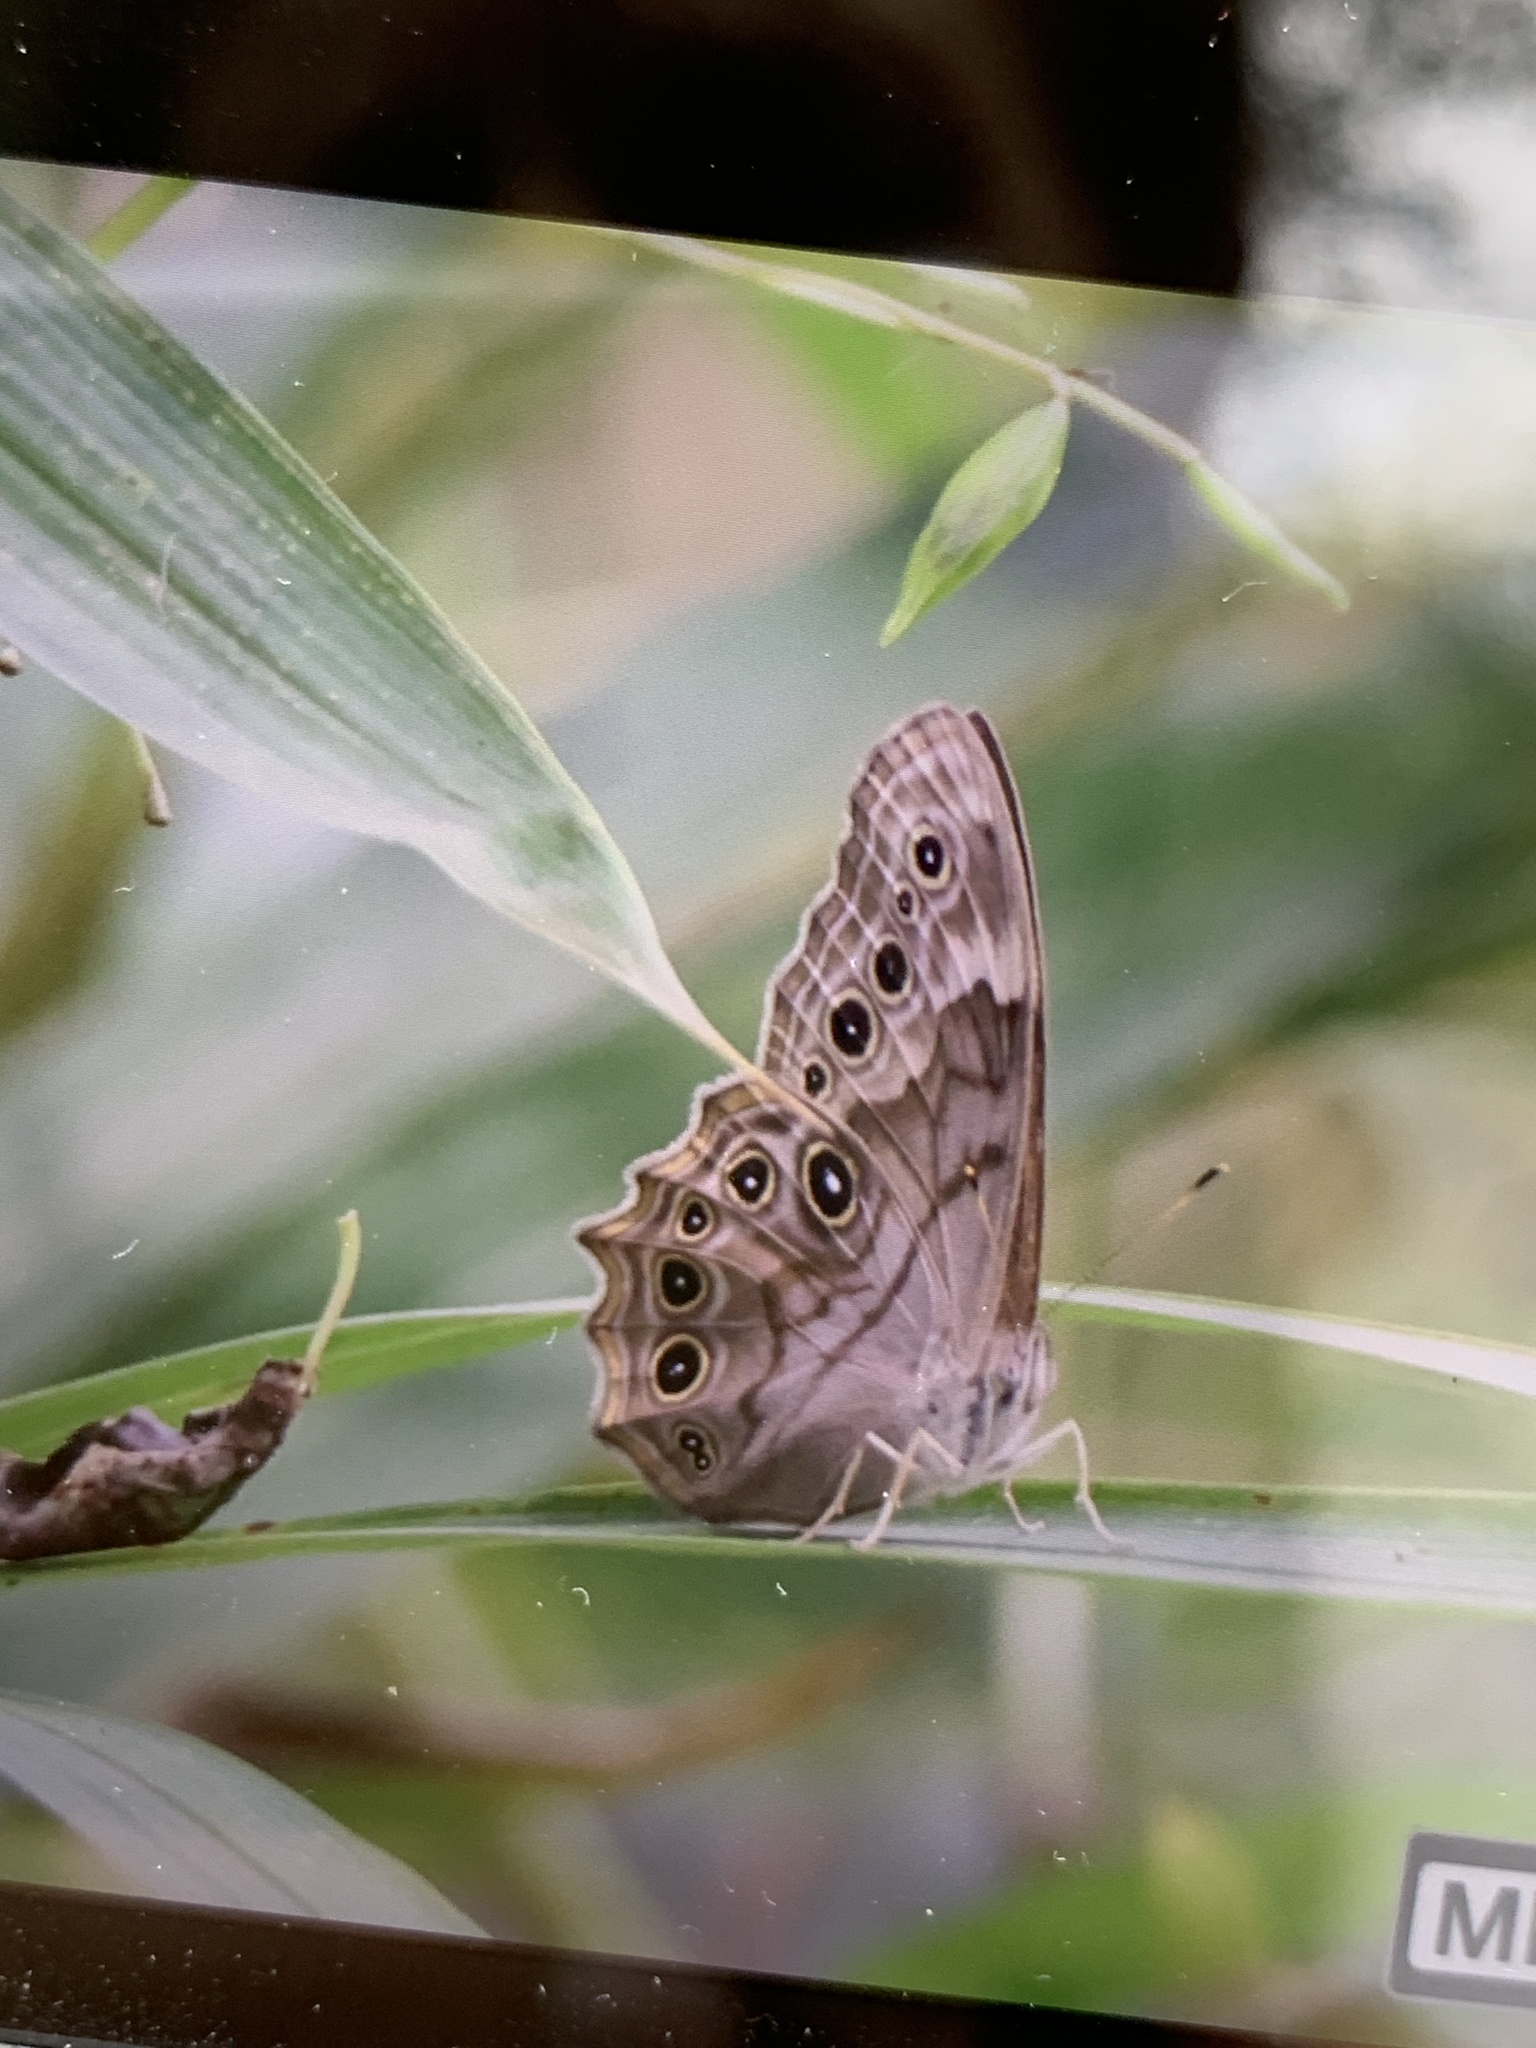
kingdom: Animalia
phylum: Arthropoda
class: Insecta
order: Lepidoptera
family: Nymphalidae
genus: Lethe
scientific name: Lethe creola
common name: Creole pearly-eye
